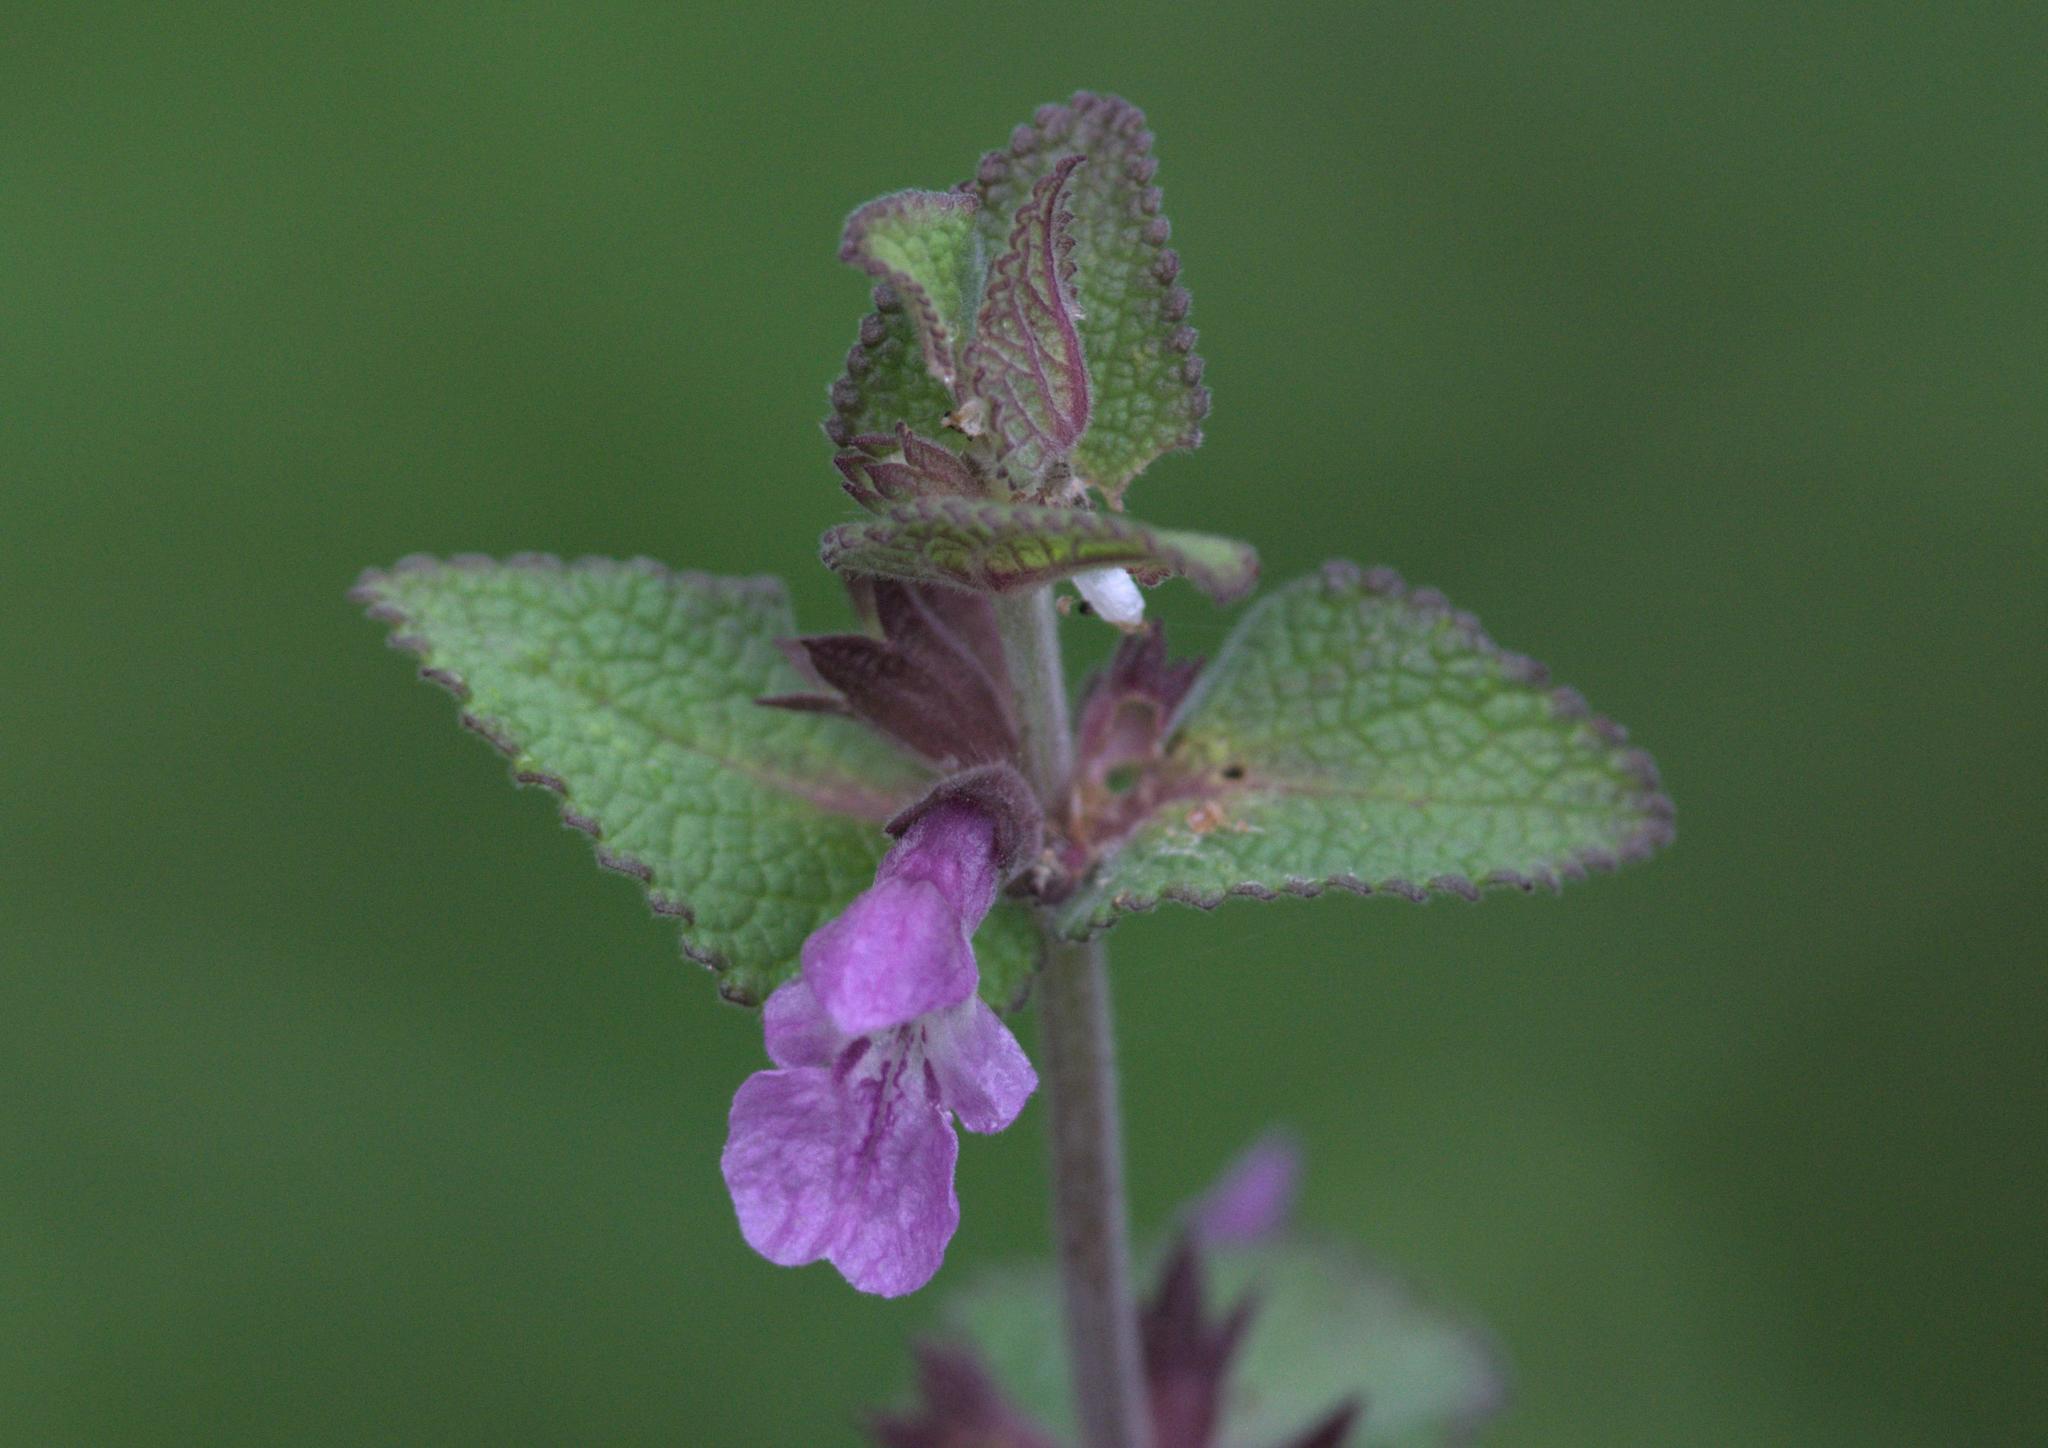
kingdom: Plantae
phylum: Tracheophyta
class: Magnoliopsida
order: Lamiales
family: Lamiaceae
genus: Stachys
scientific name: Stachys splendens
